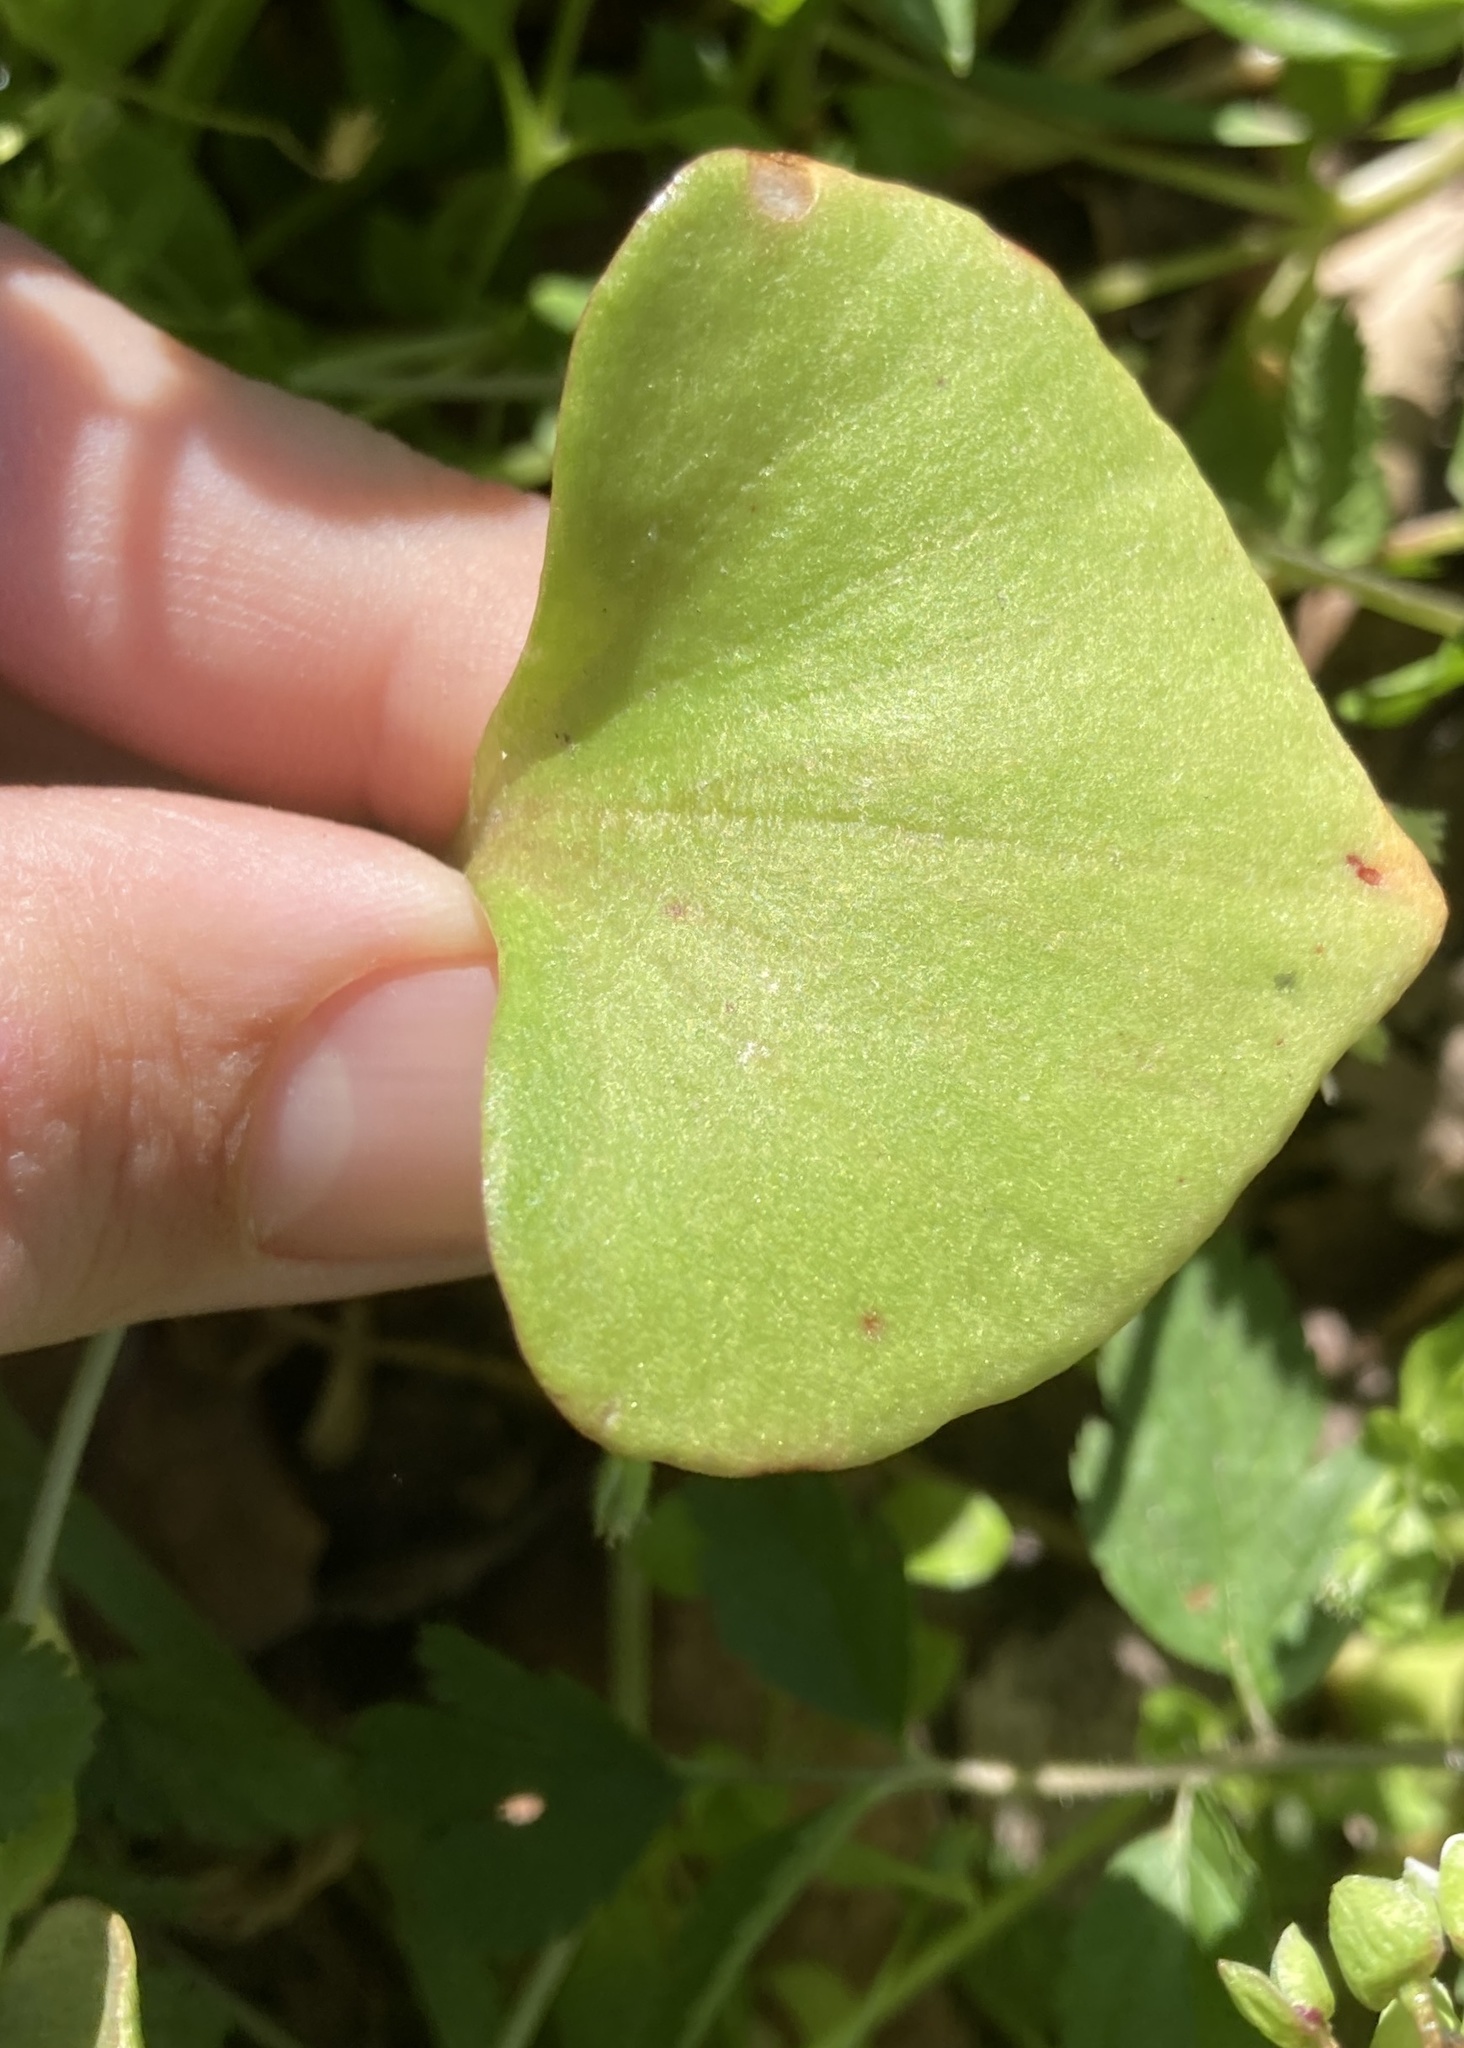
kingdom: Plantae
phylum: Tracheophyta
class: Magnoliopsida
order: Caryophyllales
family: Montiaceae
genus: Claytonia
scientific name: Claytonia perfoliata
